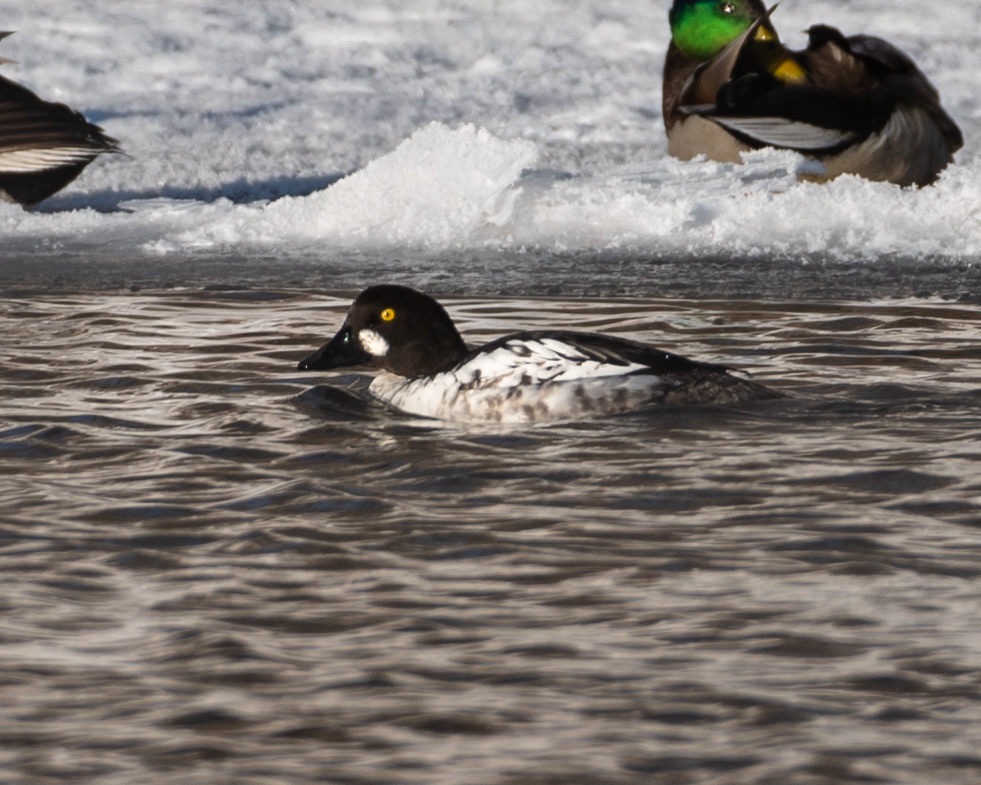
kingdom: Animalia
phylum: Chordata
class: Aves
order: Anseriformes
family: Anatidae
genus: Bucephala
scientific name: Bucephala clangula
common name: Common goldeneye
